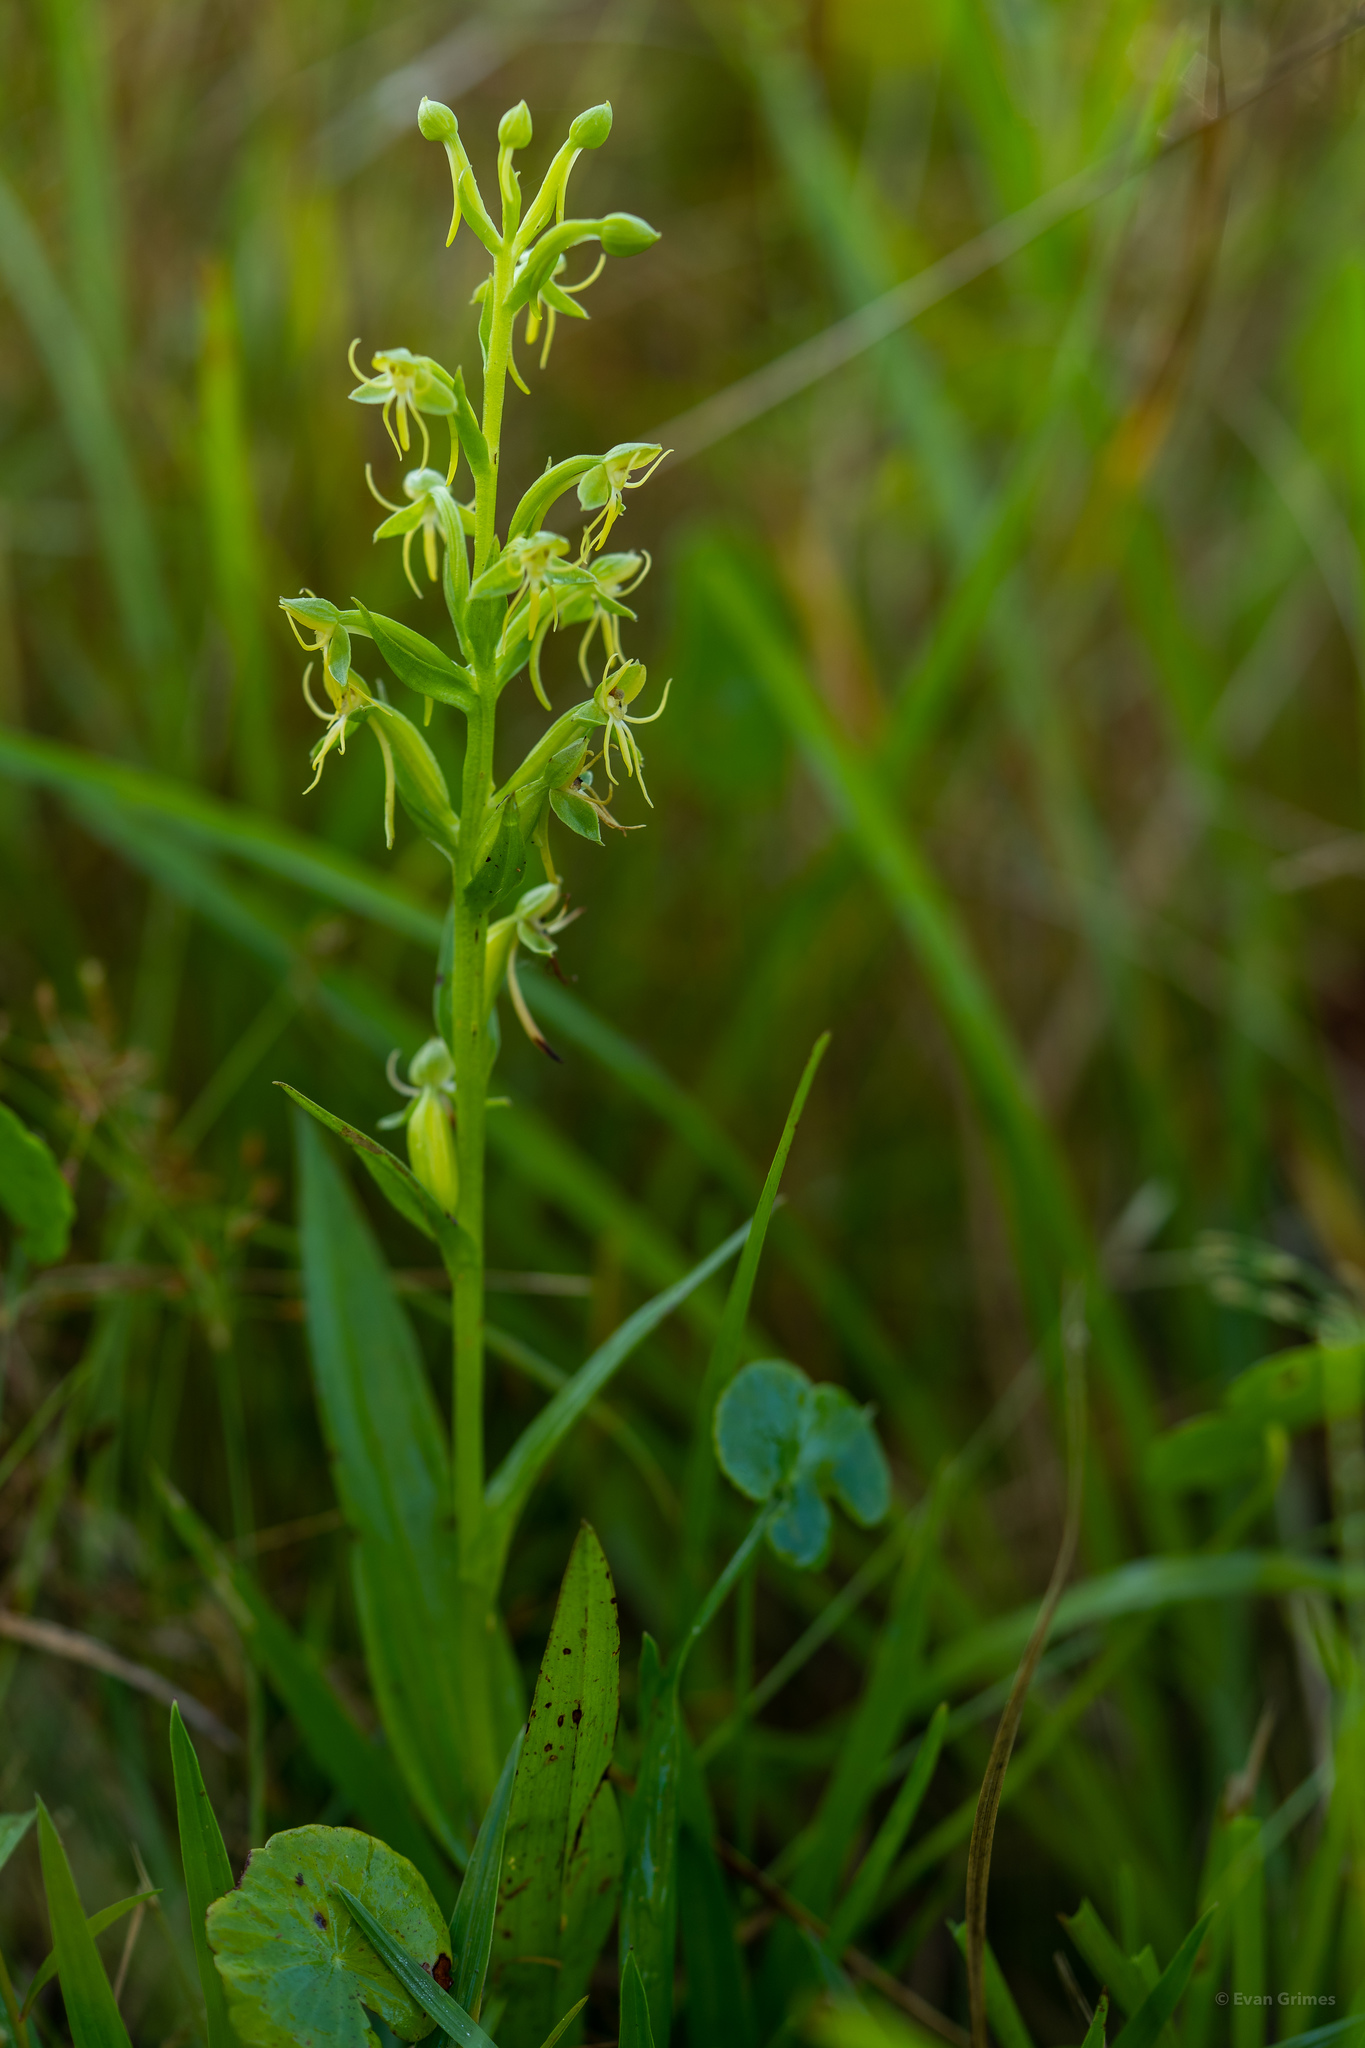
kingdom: Plantae
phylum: Tracheophyta
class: Liliopsida
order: Asparagales
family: Orchidaceae
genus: Habenaria
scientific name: Habenaria repens
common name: Water orchid
